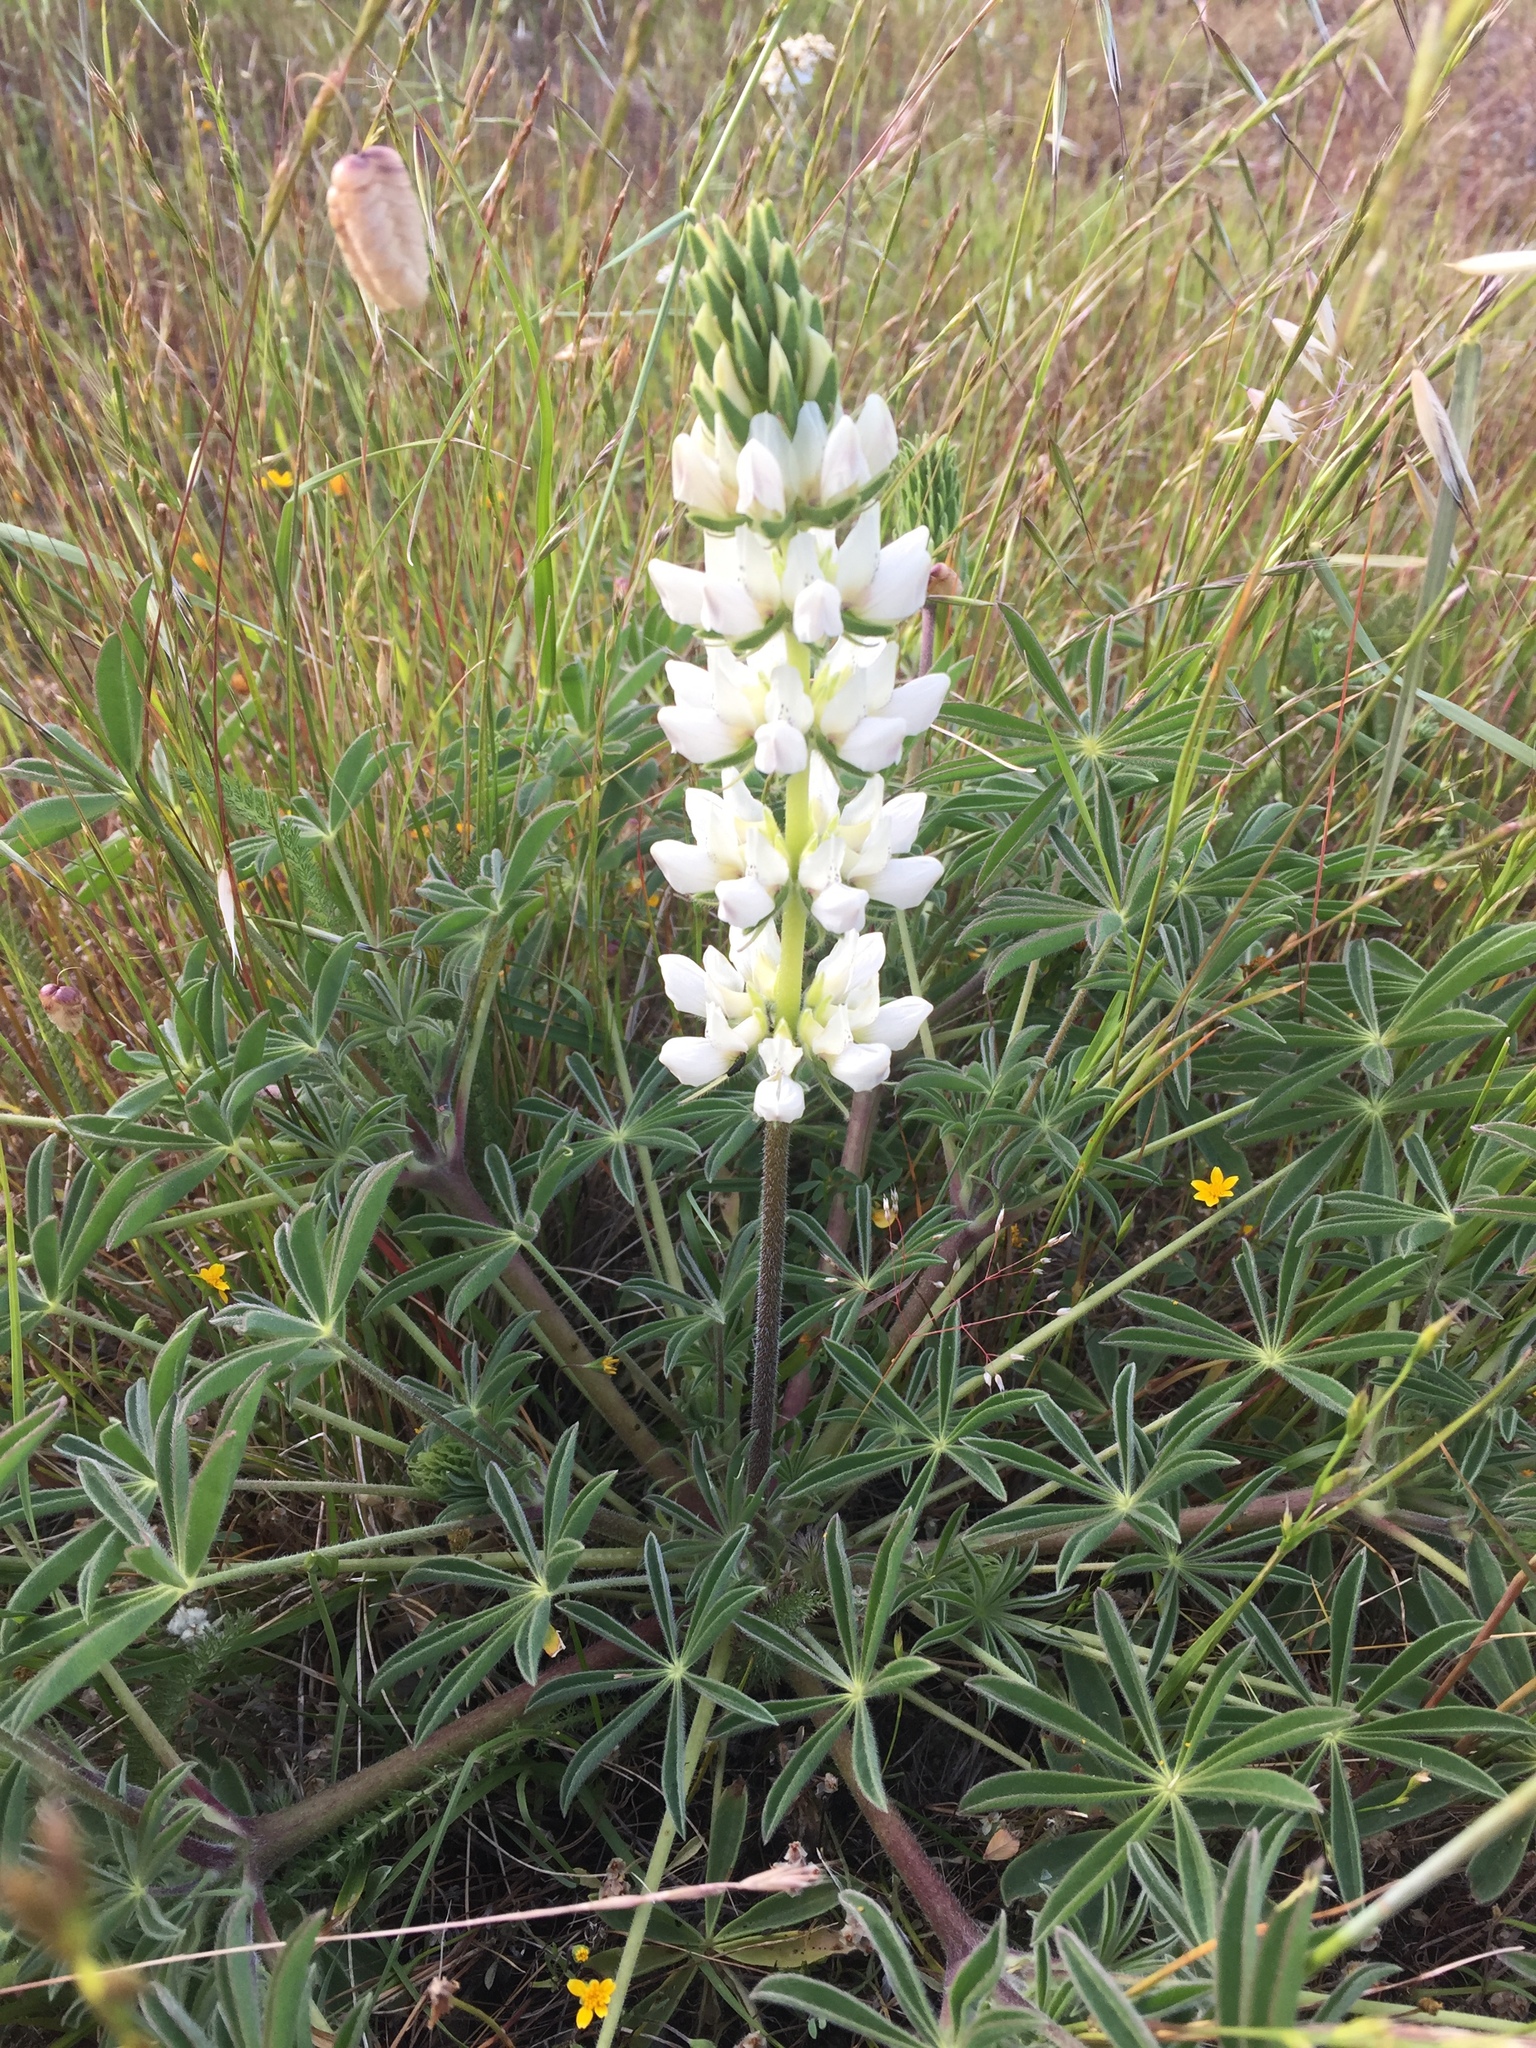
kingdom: Plantae
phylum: Tracheophyta
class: Magnoliopsida
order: Fabales
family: Fabaceae
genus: Lupinus
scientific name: Lupinus microcarpus
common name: Chick lupine
